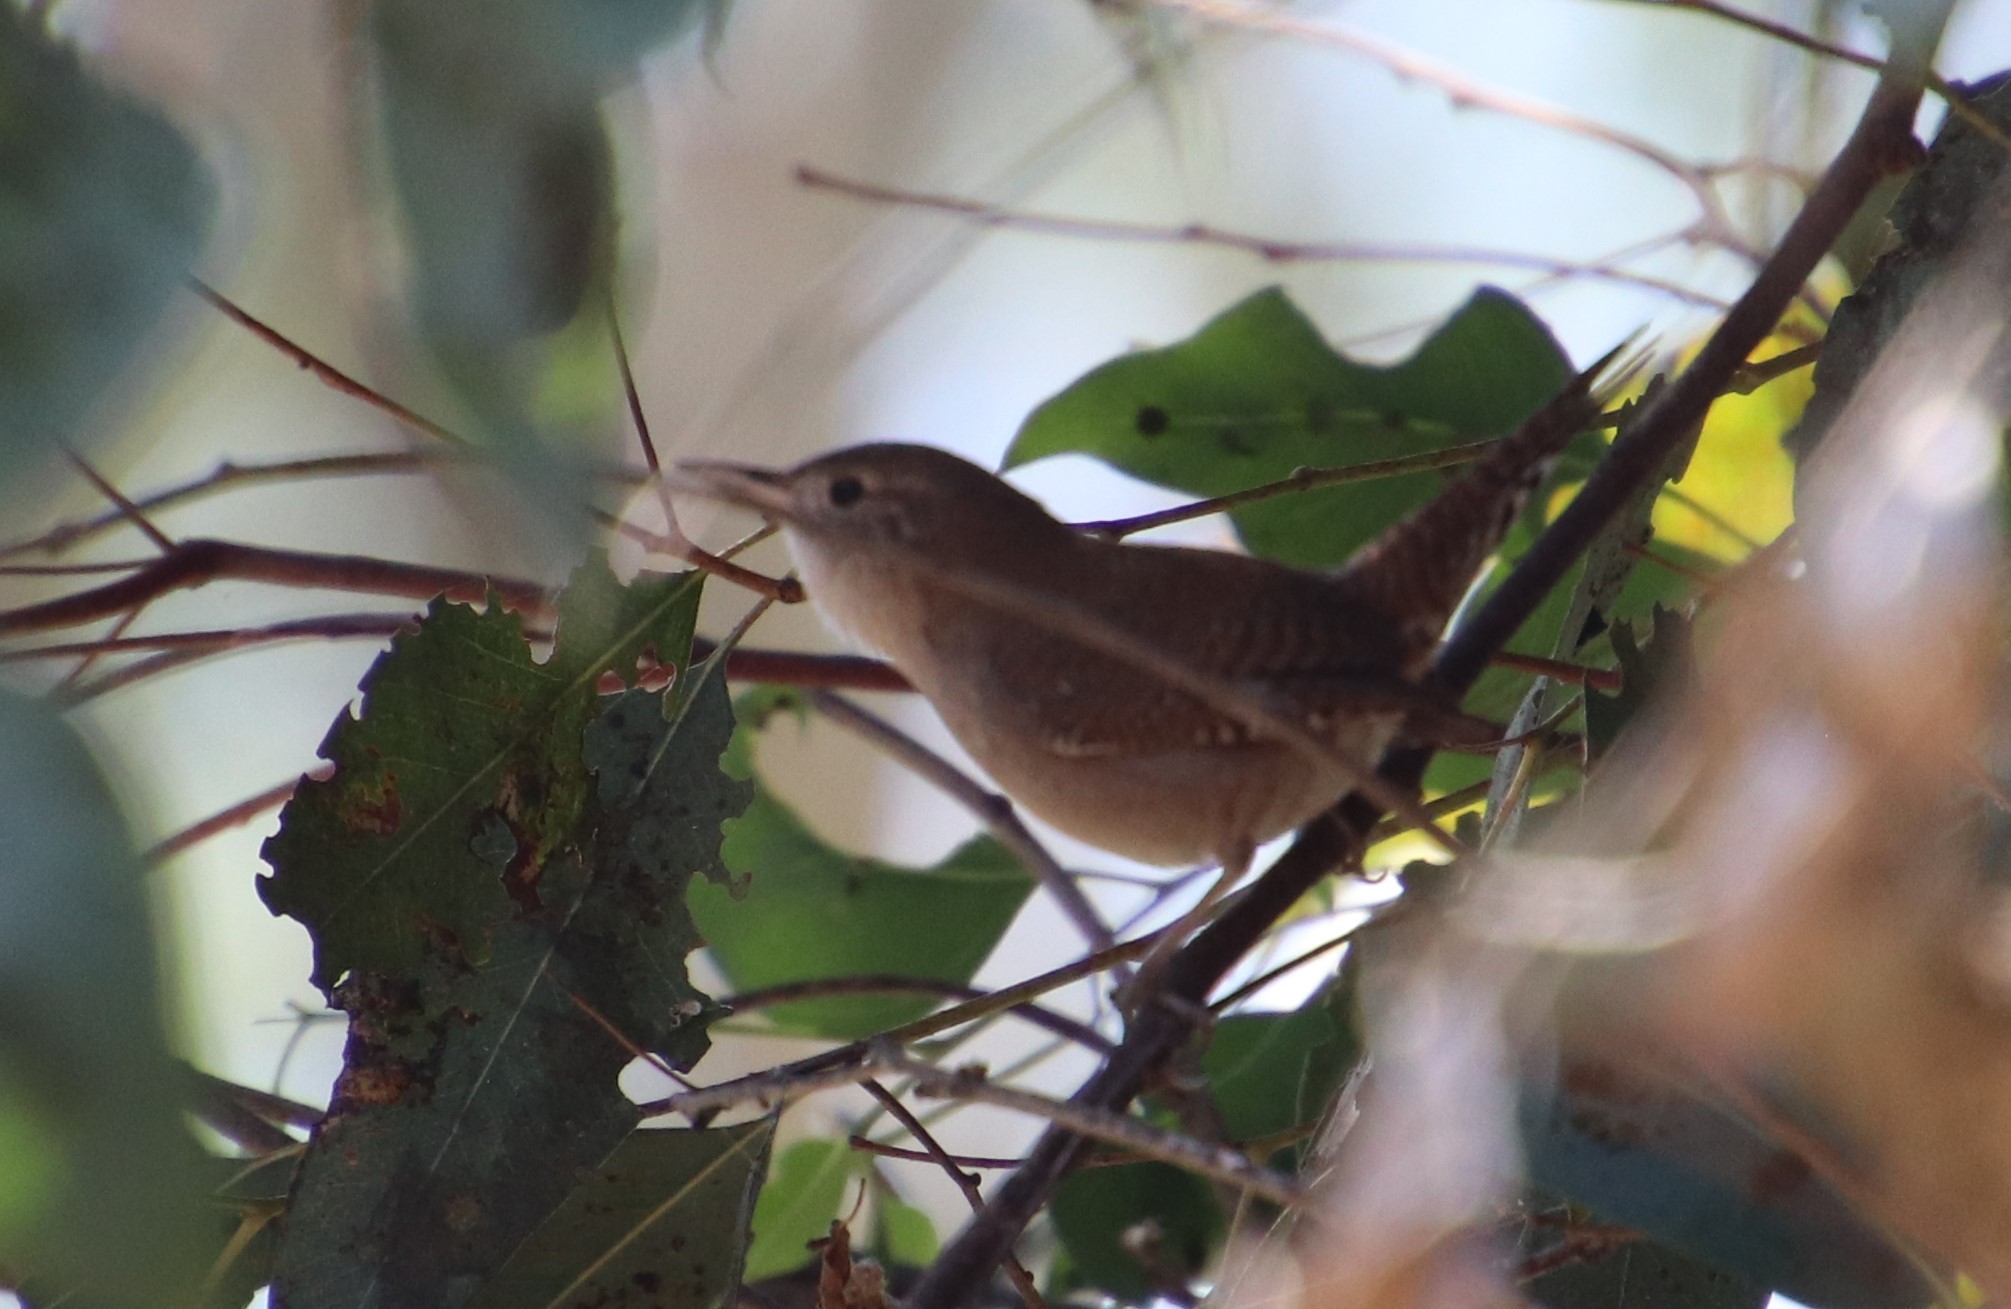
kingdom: Animalia
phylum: Chordata
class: Aves
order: Passeriformes
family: Troglodytidae
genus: Troglodytes
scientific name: Troglodytes aedon
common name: House wren
